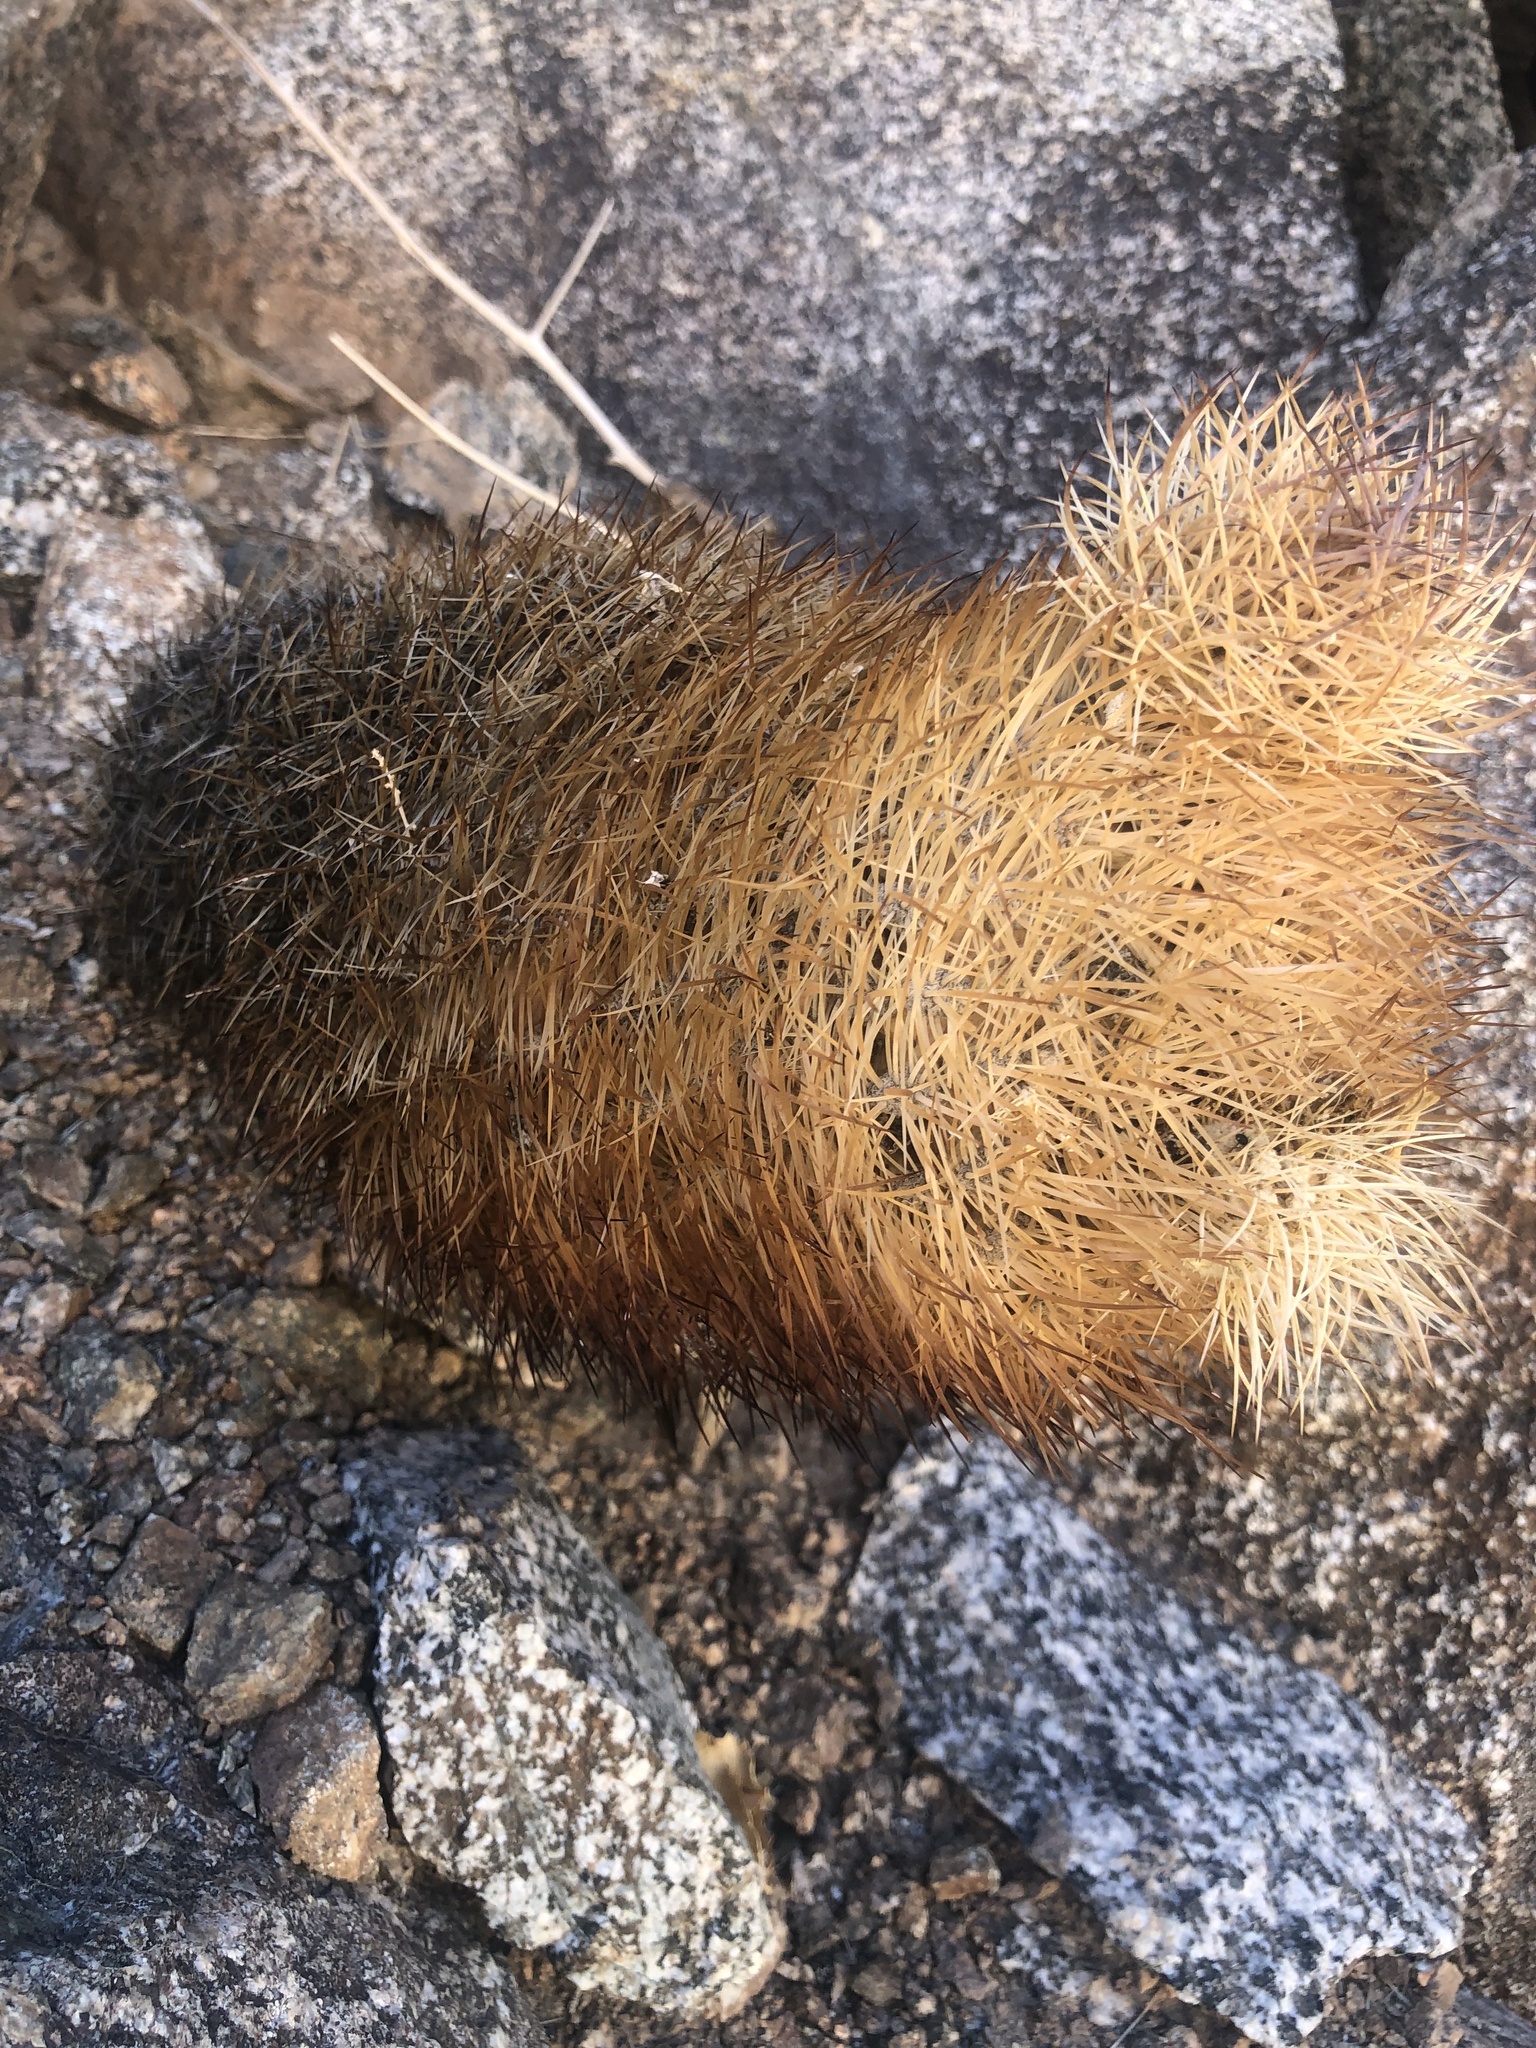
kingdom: Plantae
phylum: Tracheophyta
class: Magnoliopsida
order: Caryophyllales
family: Cactaceae
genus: Eriosyce
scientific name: Eriosyce eriosyzoides
